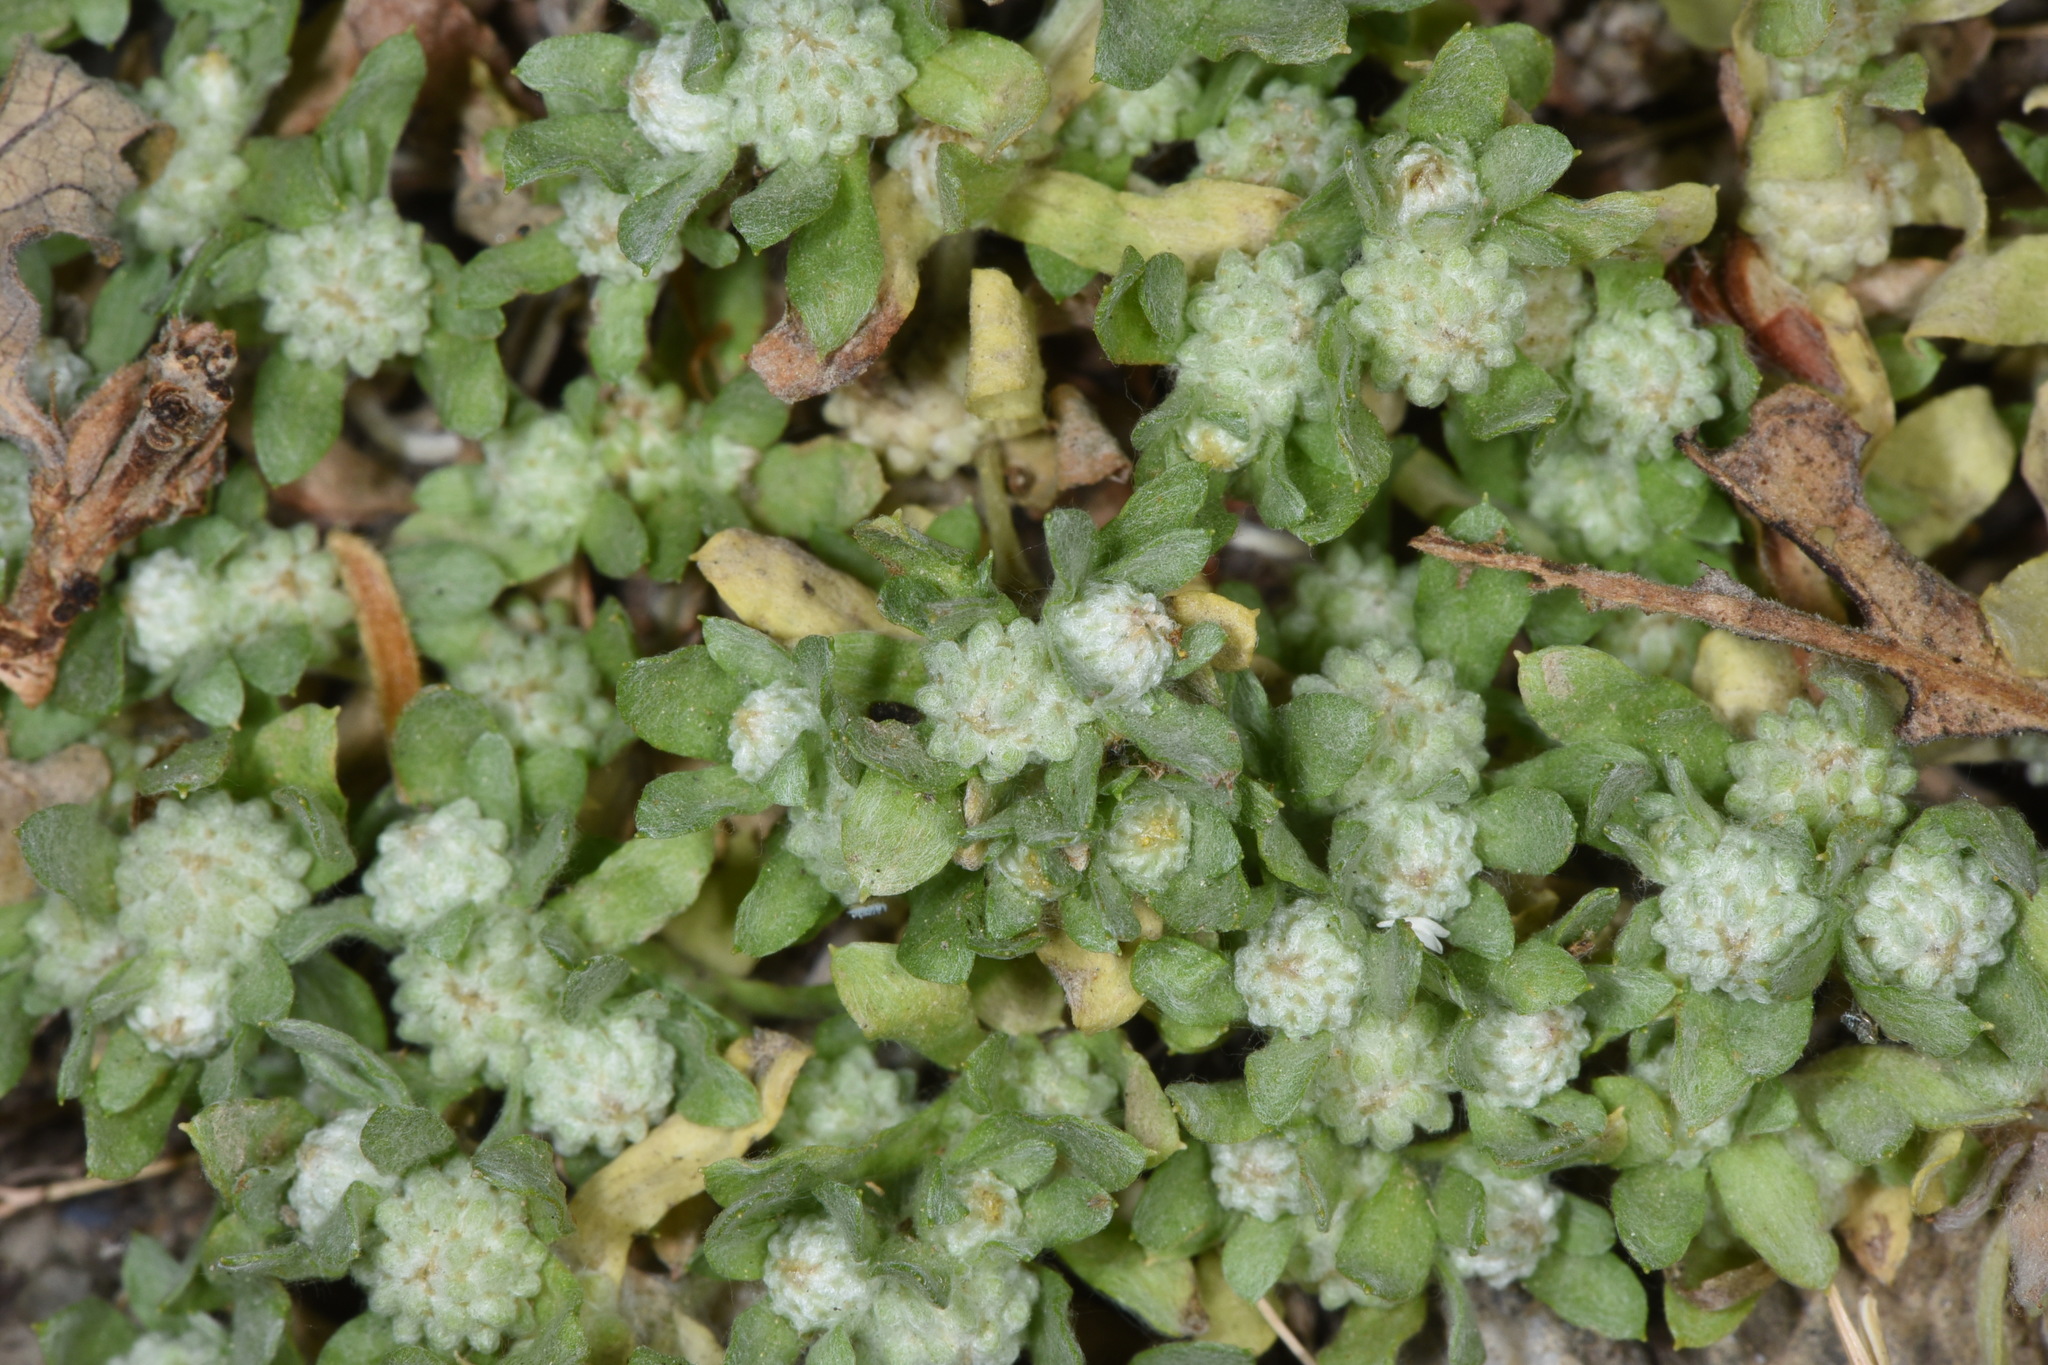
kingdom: Plantae
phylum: Tracheophyta
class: Magnoliopsida
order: Asterales
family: Asteraceae
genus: Psilocarphus
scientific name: Psilocarphus tenellus
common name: Slender woolly-marbles
